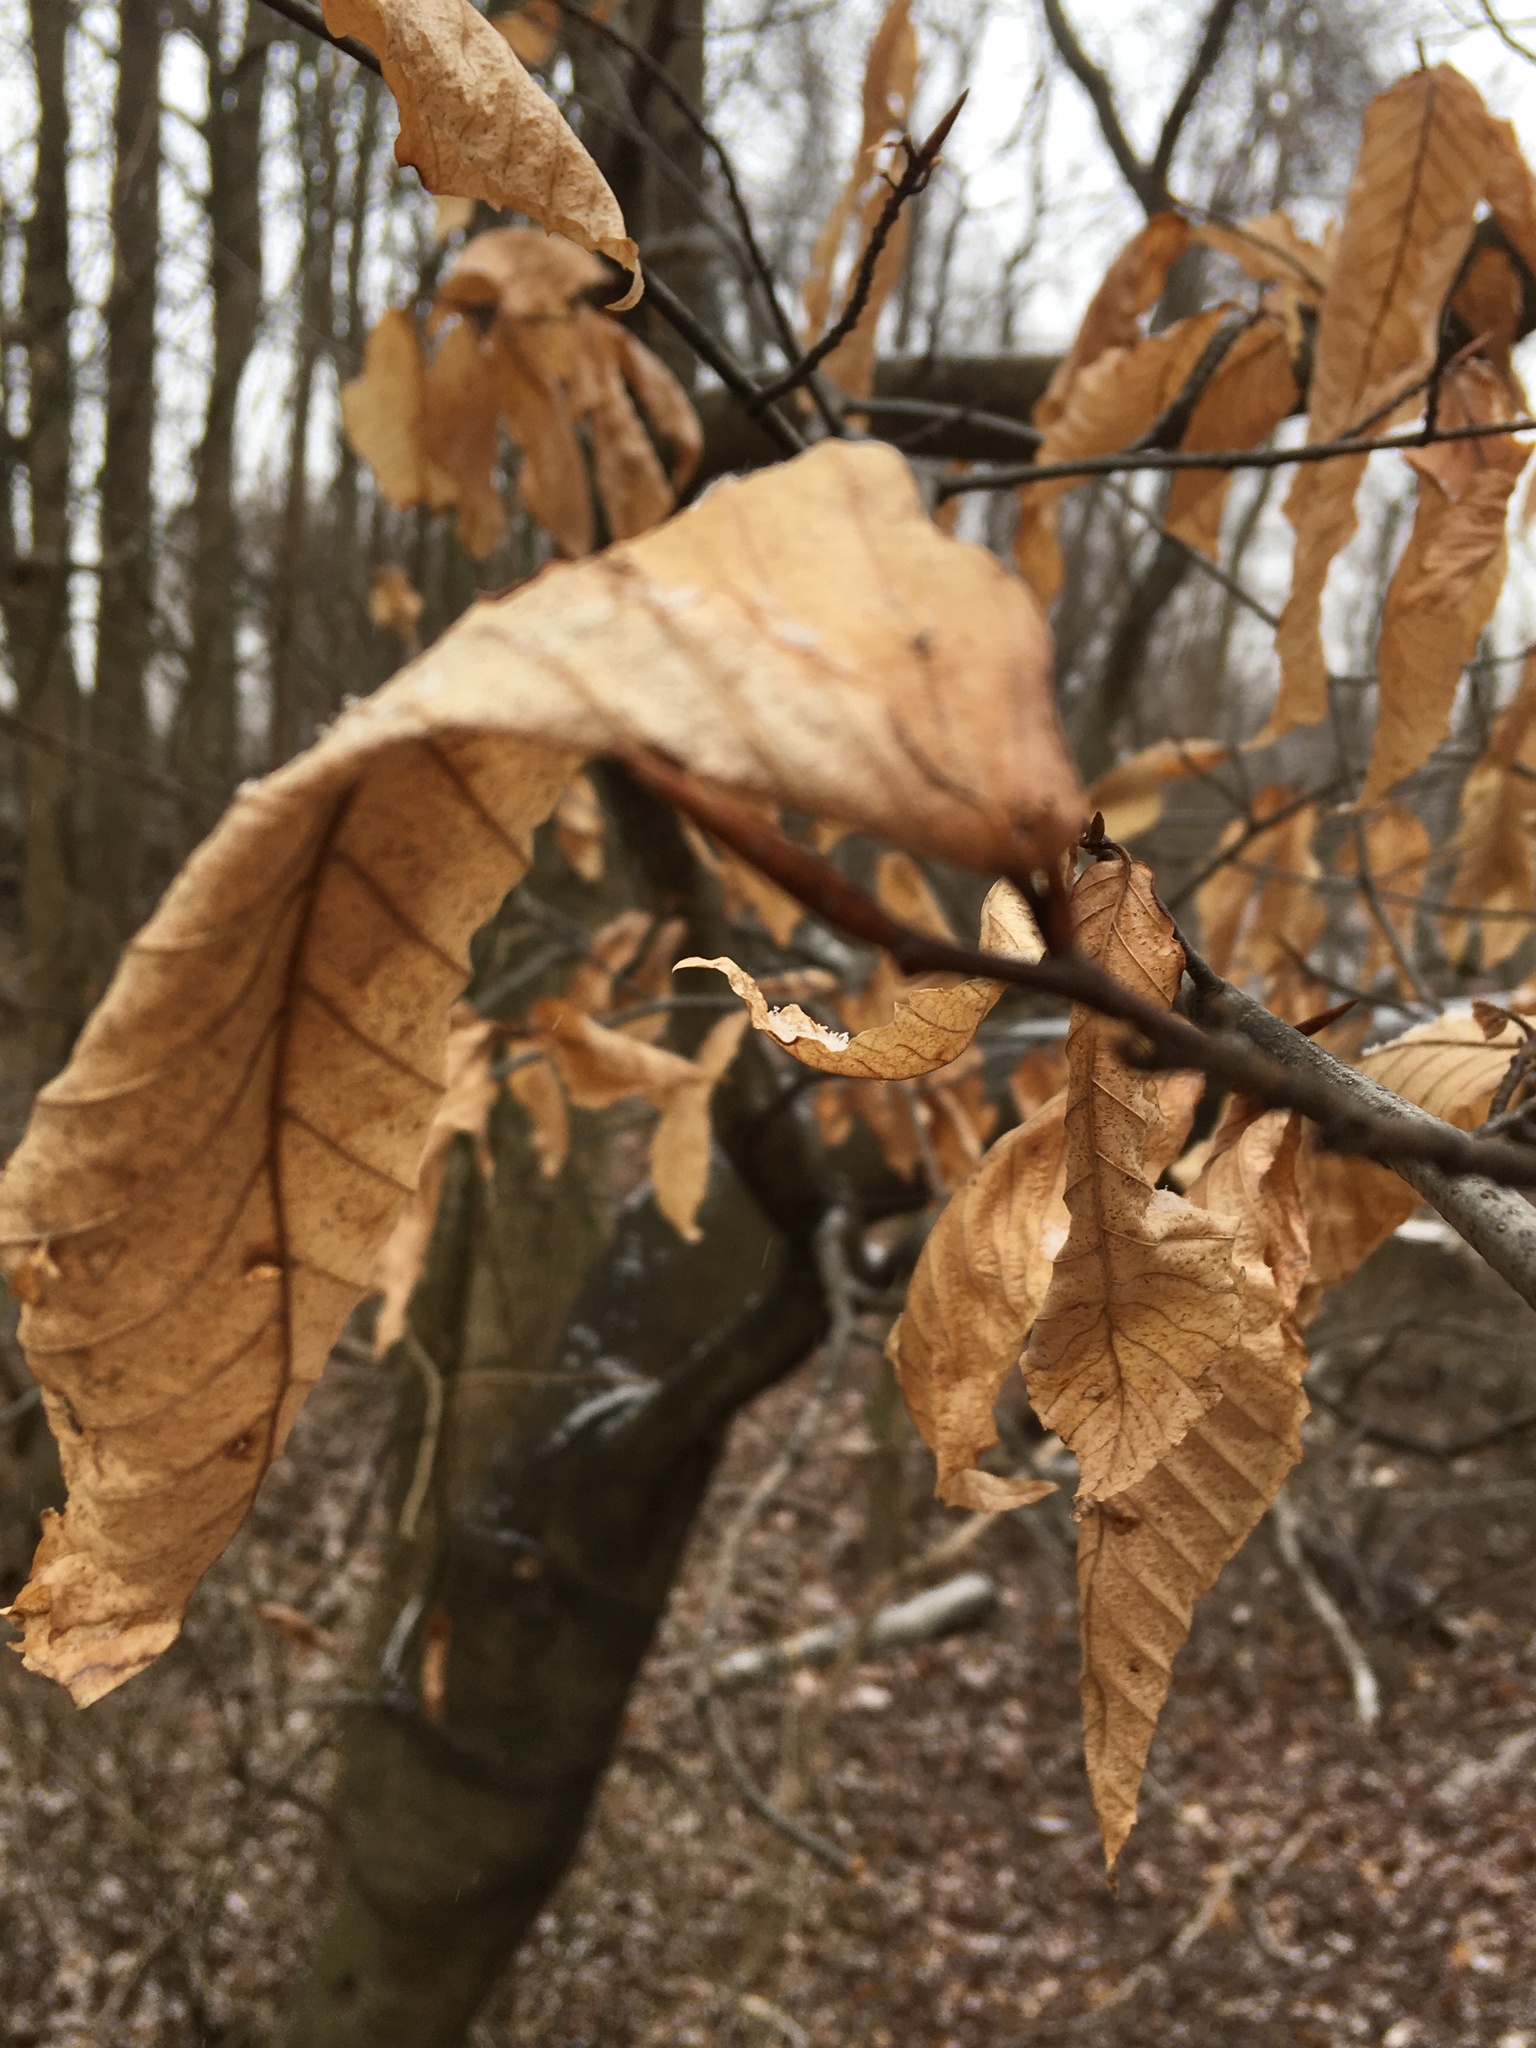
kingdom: Plantae
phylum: Tracheophyta
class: Magnoliopsida
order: Fagales
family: Fagaceae
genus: Fagus
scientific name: Fagus grandifolia
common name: American beech
